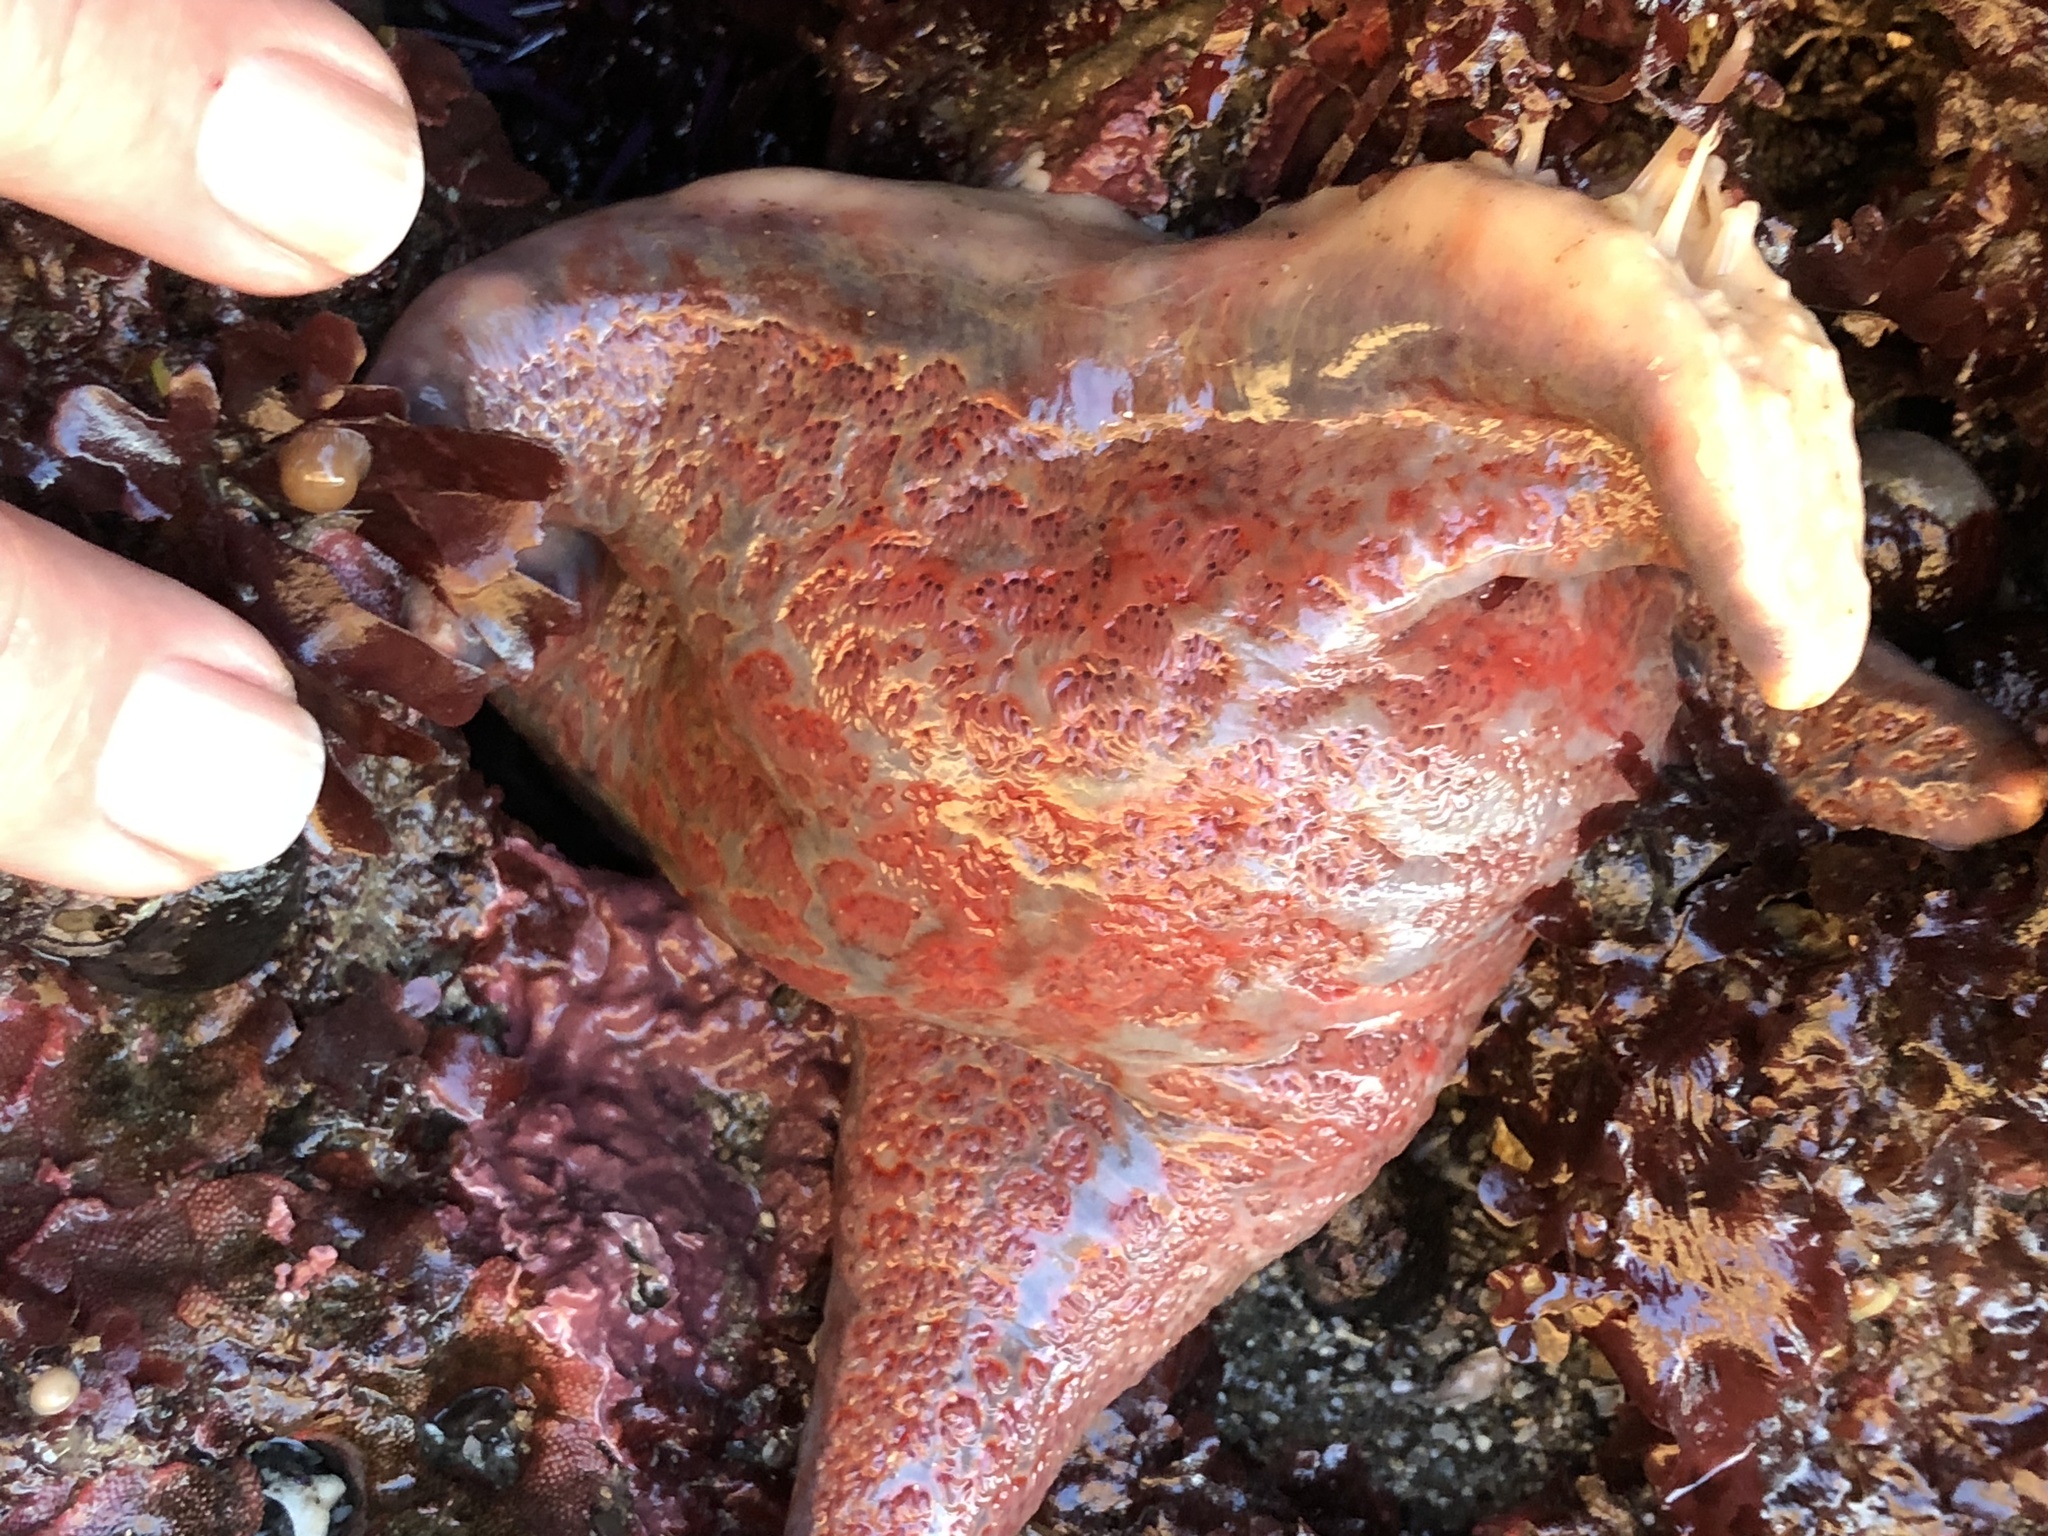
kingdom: Animalia
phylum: Echinodermata
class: Asteroidea
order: Valvatida
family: Asteropseidae
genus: Dermasterias
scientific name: Dermasterias imbricata
